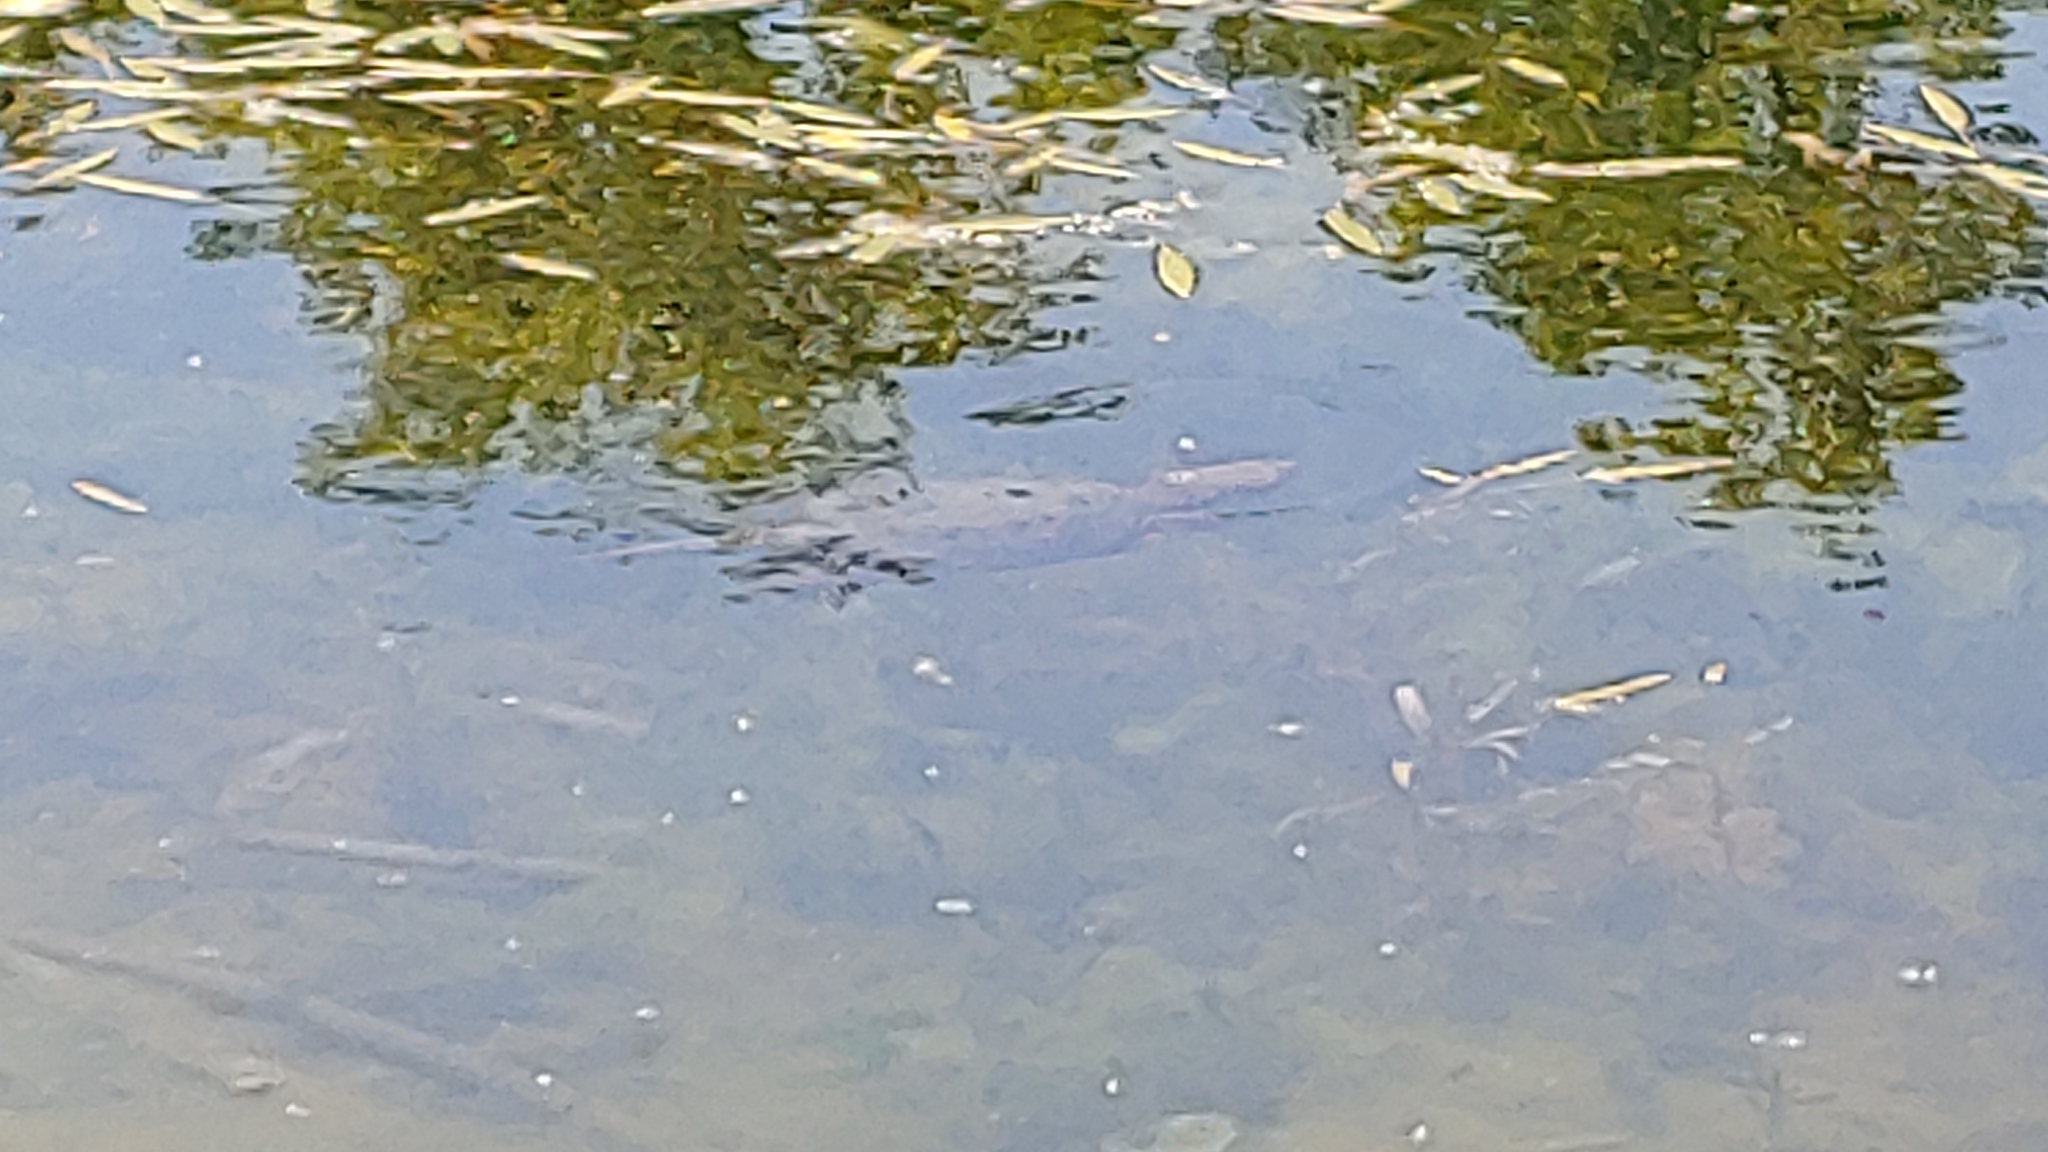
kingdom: Animalia
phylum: Chordata
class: Testudines
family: Chelydridae
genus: Chelydra
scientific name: Chelydra serpentina
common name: Common snapping turtle
